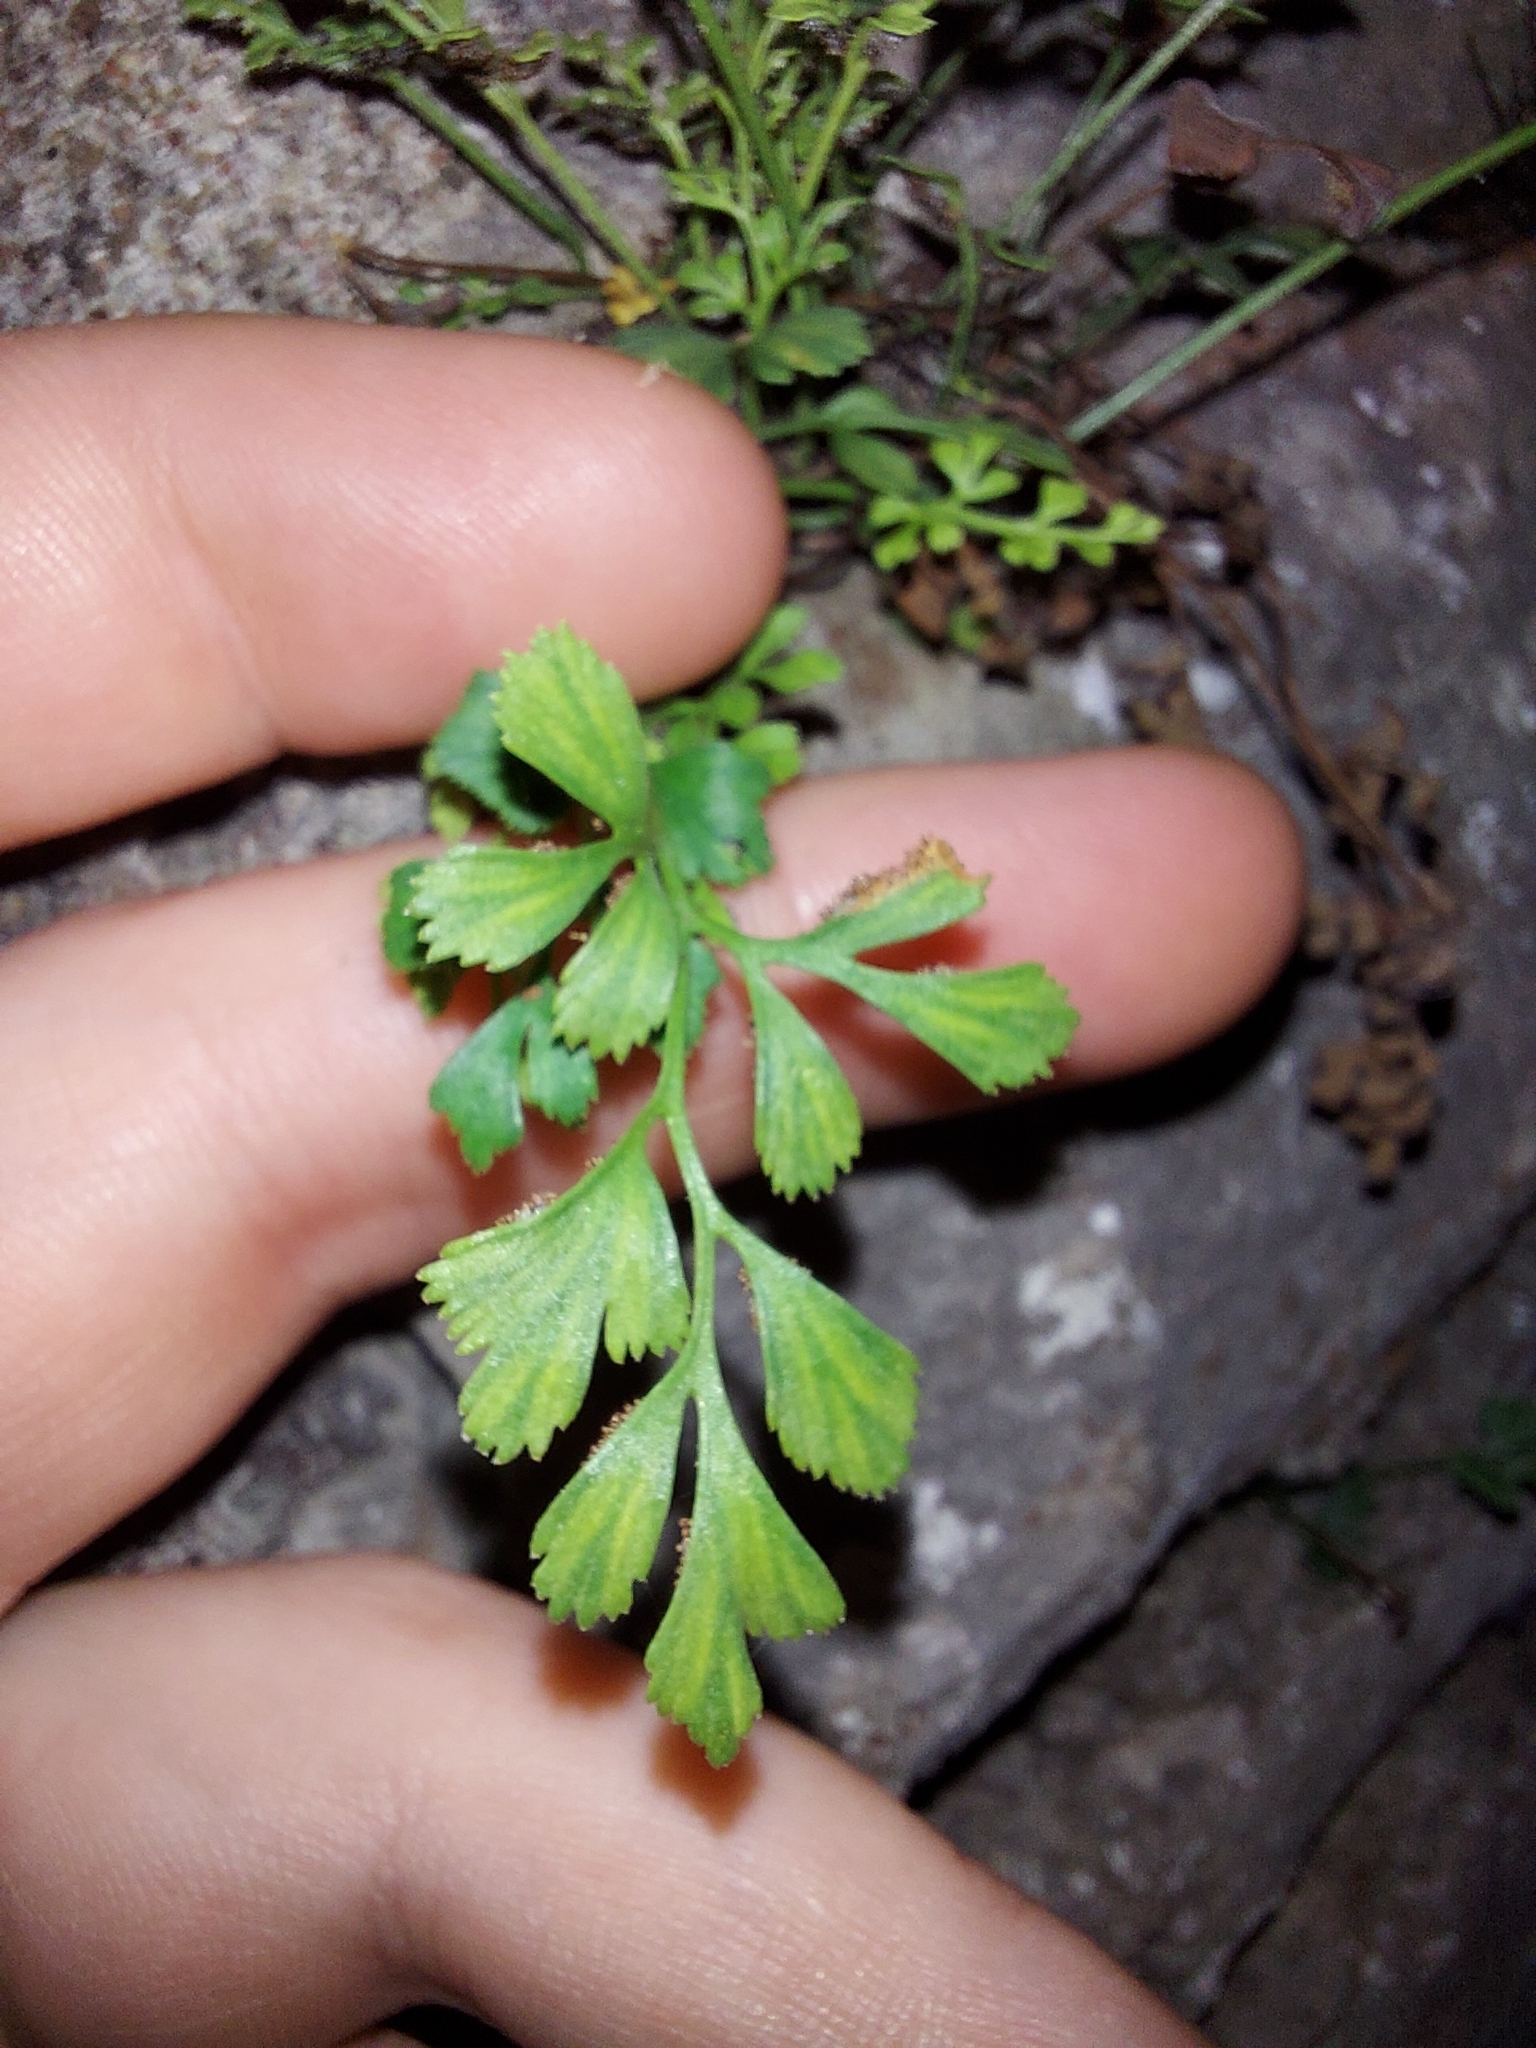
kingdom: Plantae
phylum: Tracheophyta
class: Polypodiopsida
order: Polypodiales
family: Aspleniaceae
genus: Asplenium
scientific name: Asplenium ruta-muraria
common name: Wall-rue
